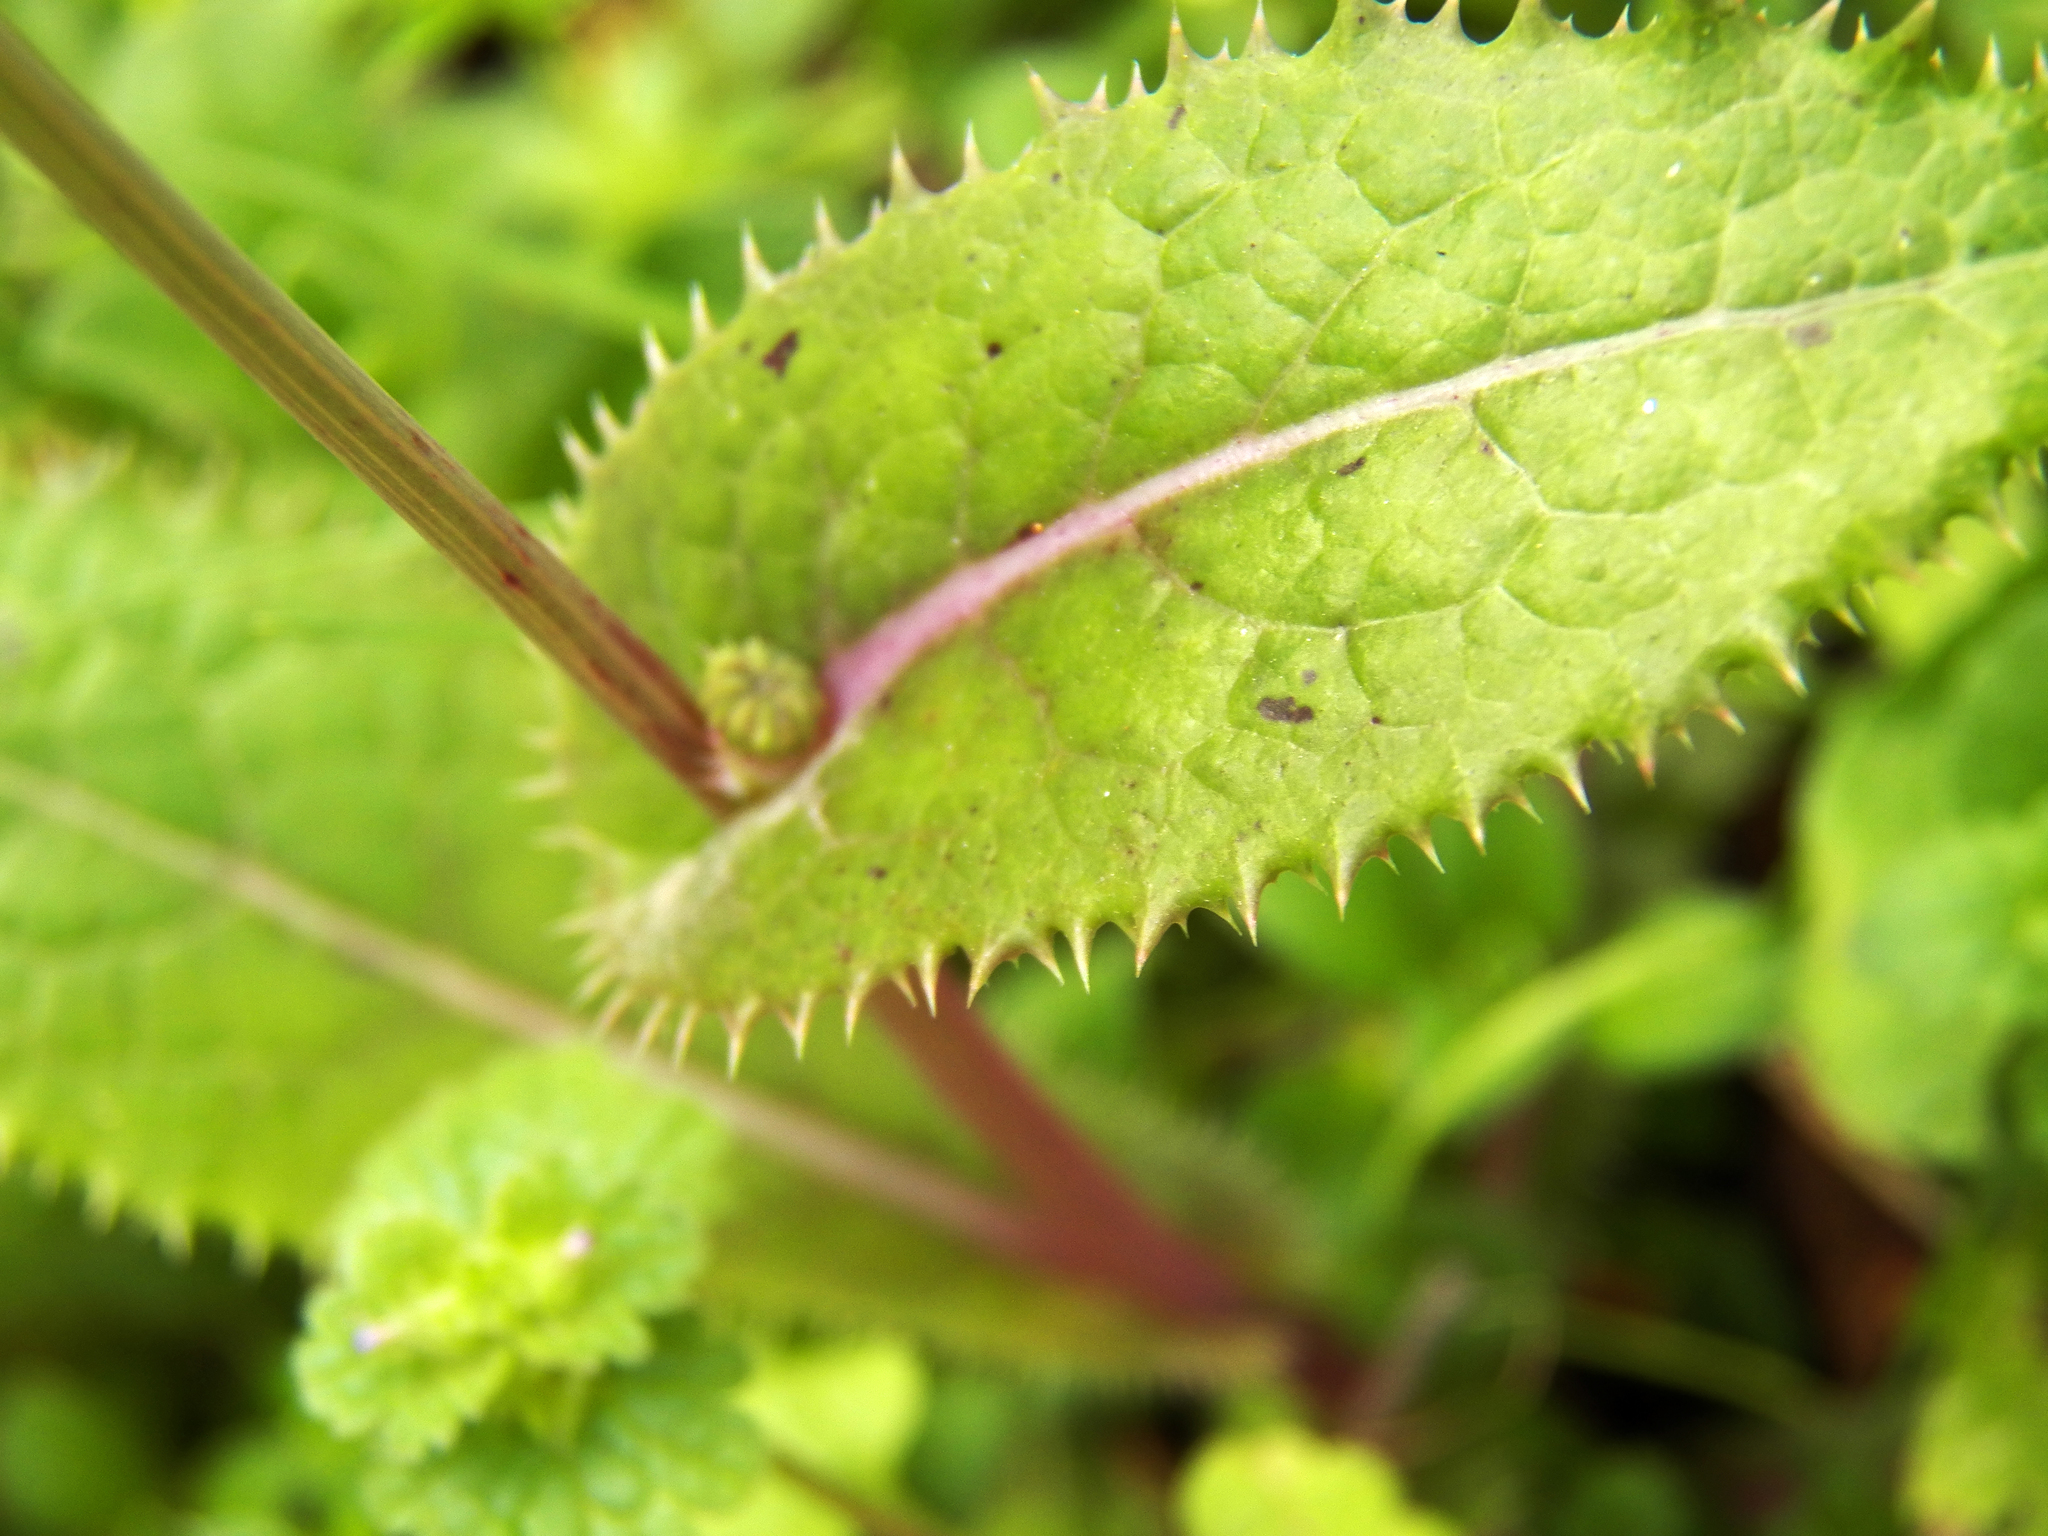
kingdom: Plantae
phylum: Tracheophyta
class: Magnoliopsida
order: Asterales
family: Asteraceae
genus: Sonchus
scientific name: Sonchus asper
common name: Prickly sow-thistle
